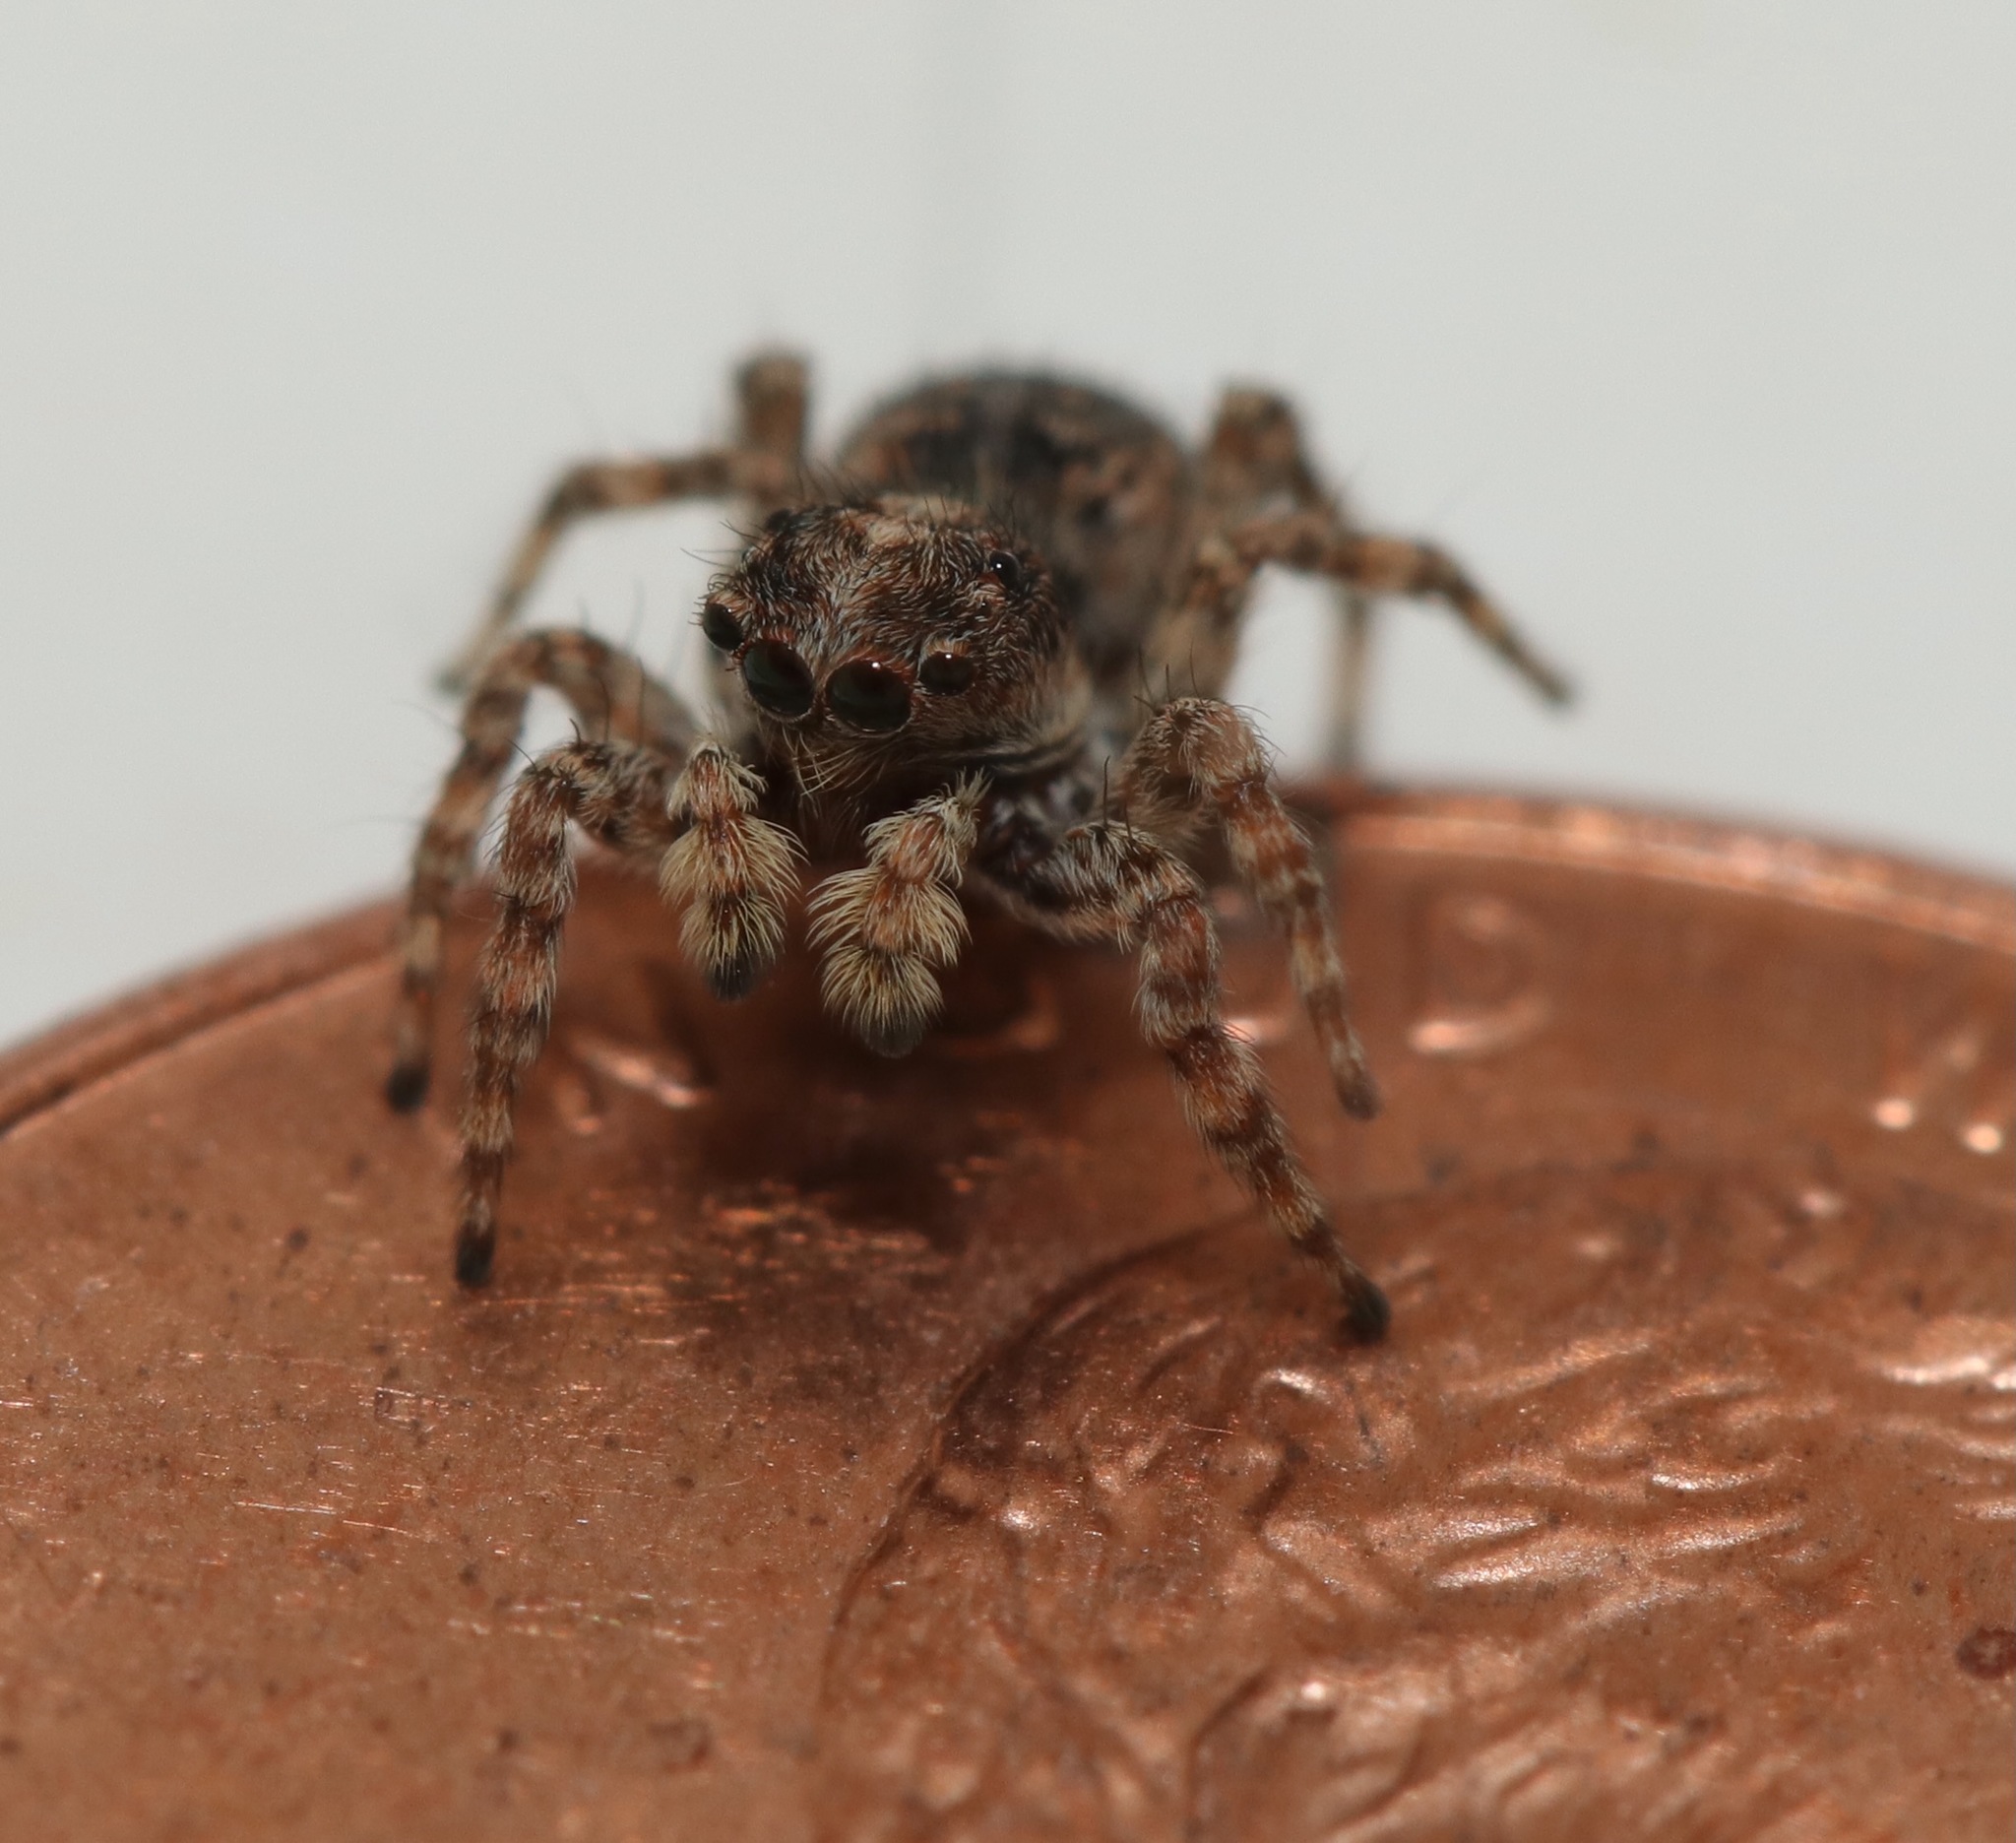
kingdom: Animalia
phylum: Arthropoda
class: Arachnida
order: Araneae
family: Salticidae
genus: Attulus
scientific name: Attulus fasciger
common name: Asiatic wall jumping spider
